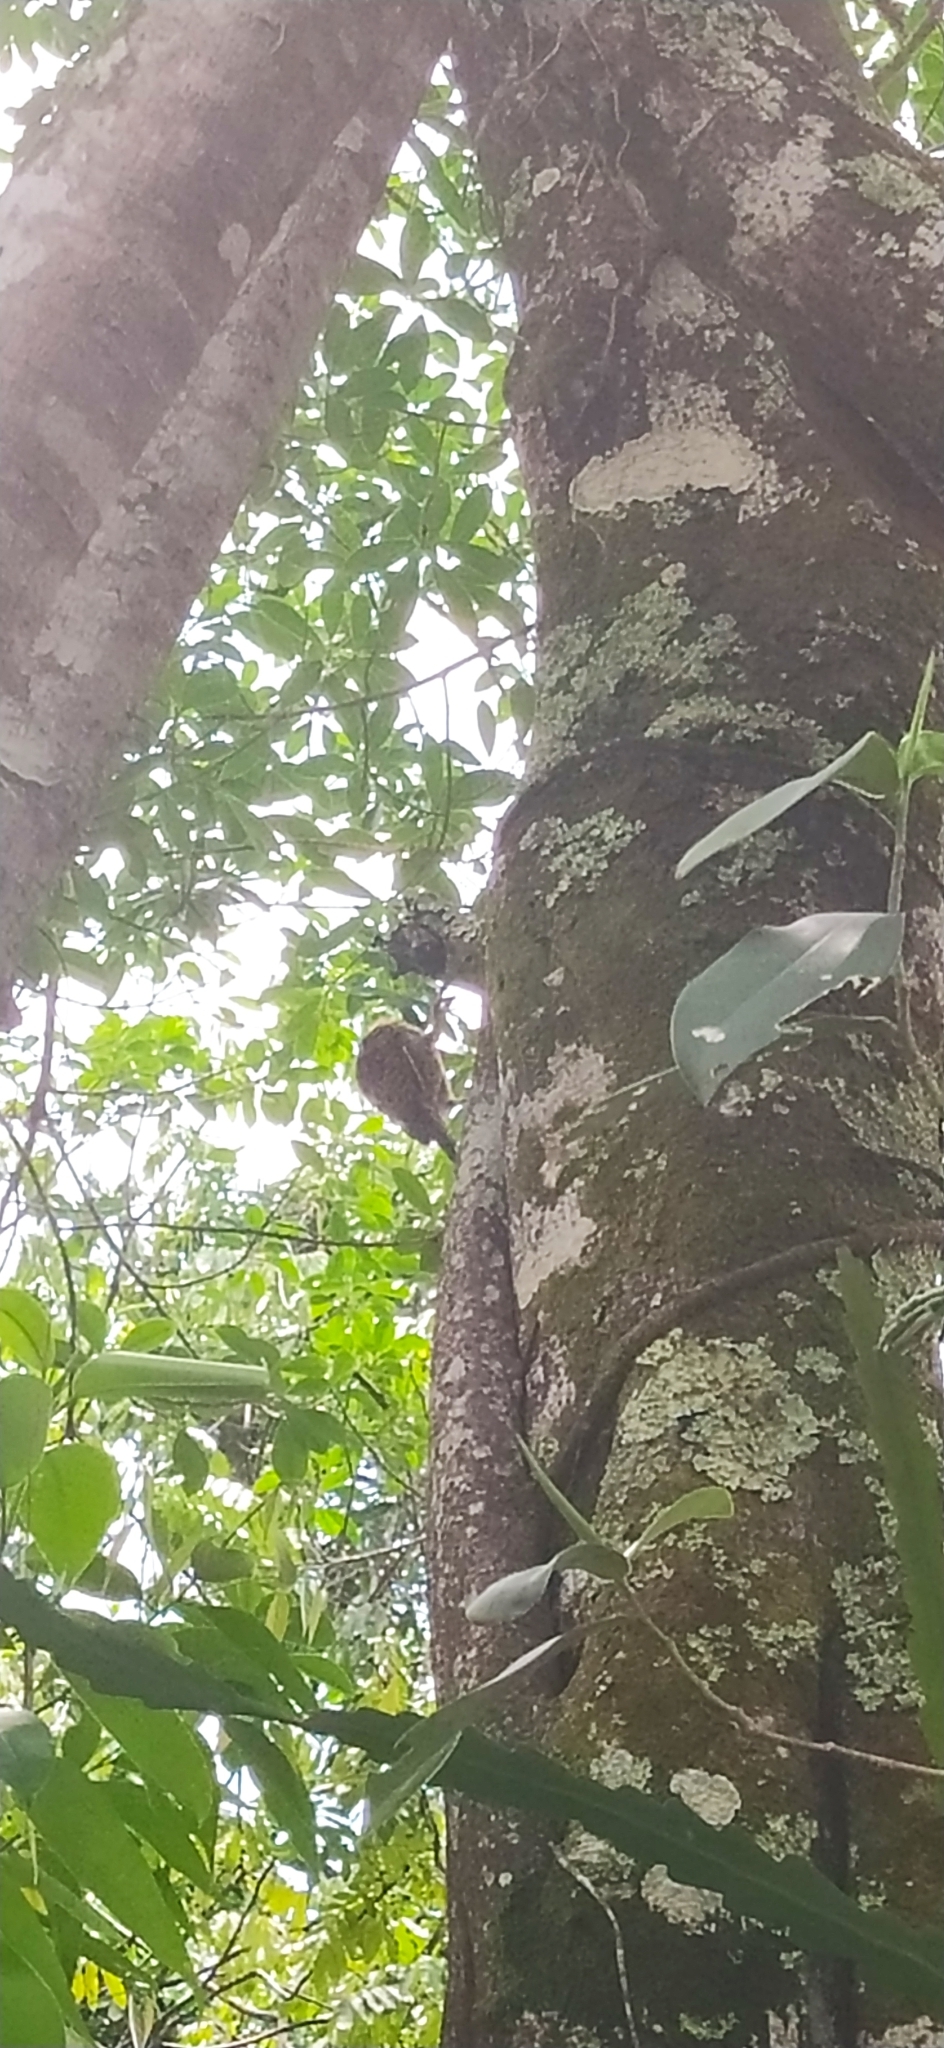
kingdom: Animalia
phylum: Chordata
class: Aves
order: Piciformes
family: Picidae
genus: Colaptes
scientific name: Colaptes punctigula
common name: Spot-breasted woodpecker
